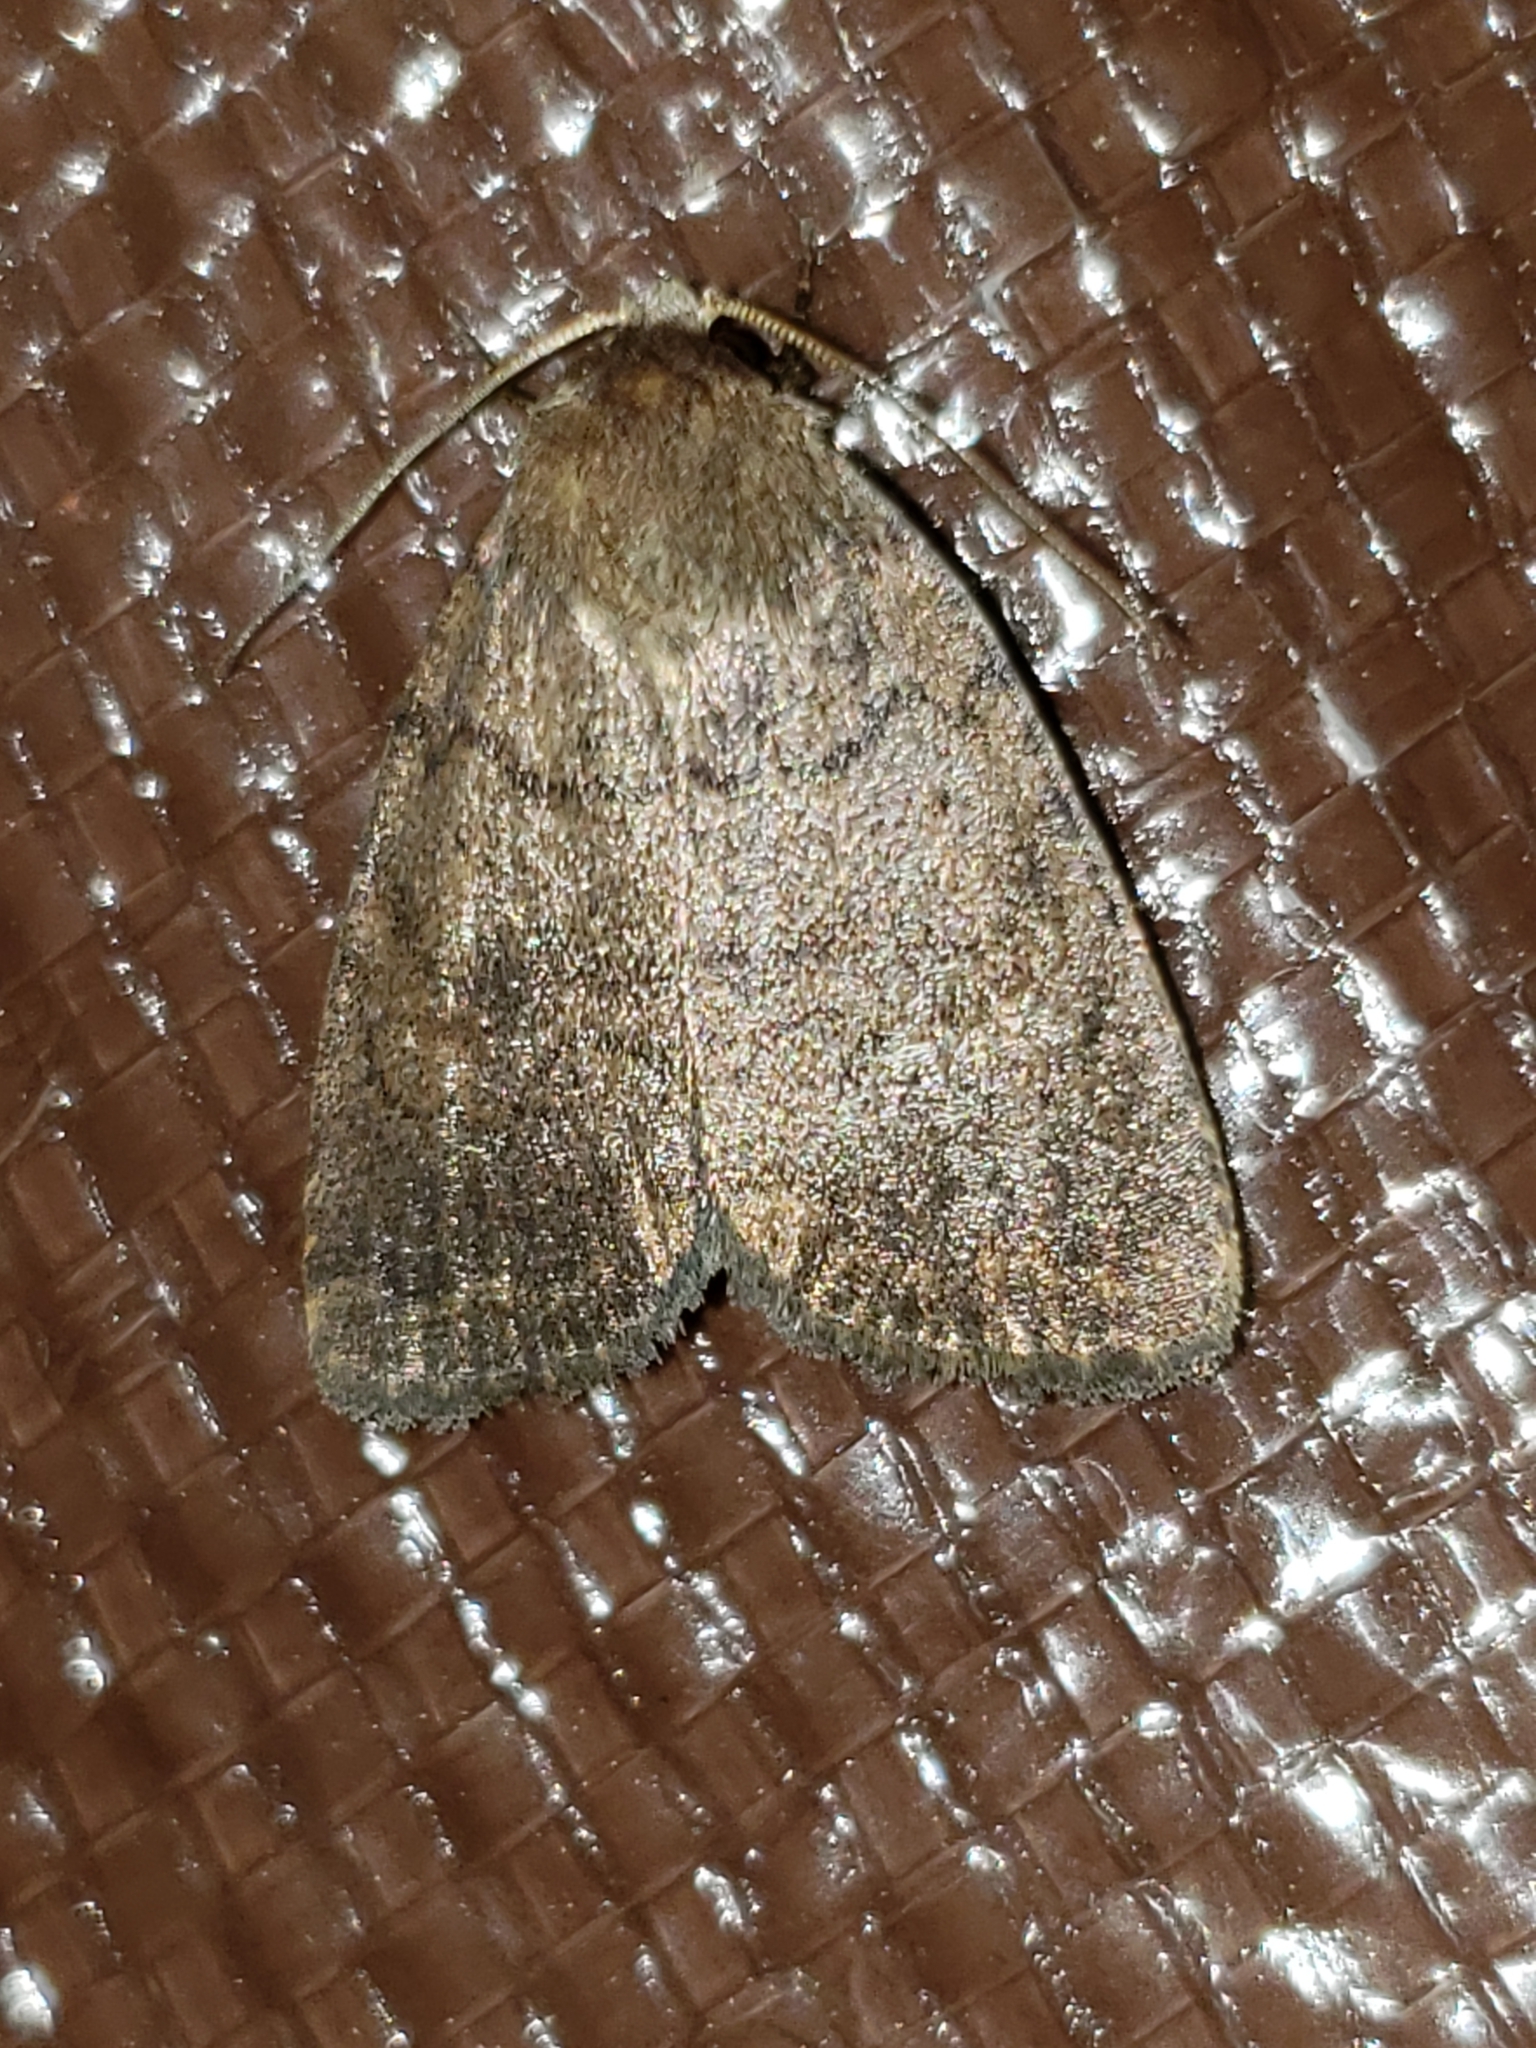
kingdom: Animalia
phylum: Arthropoda
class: Insecta
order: Lepidoptera
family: Noctuidae
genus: Athetis
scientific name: Athetis tarda
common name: Slowpoke moth
